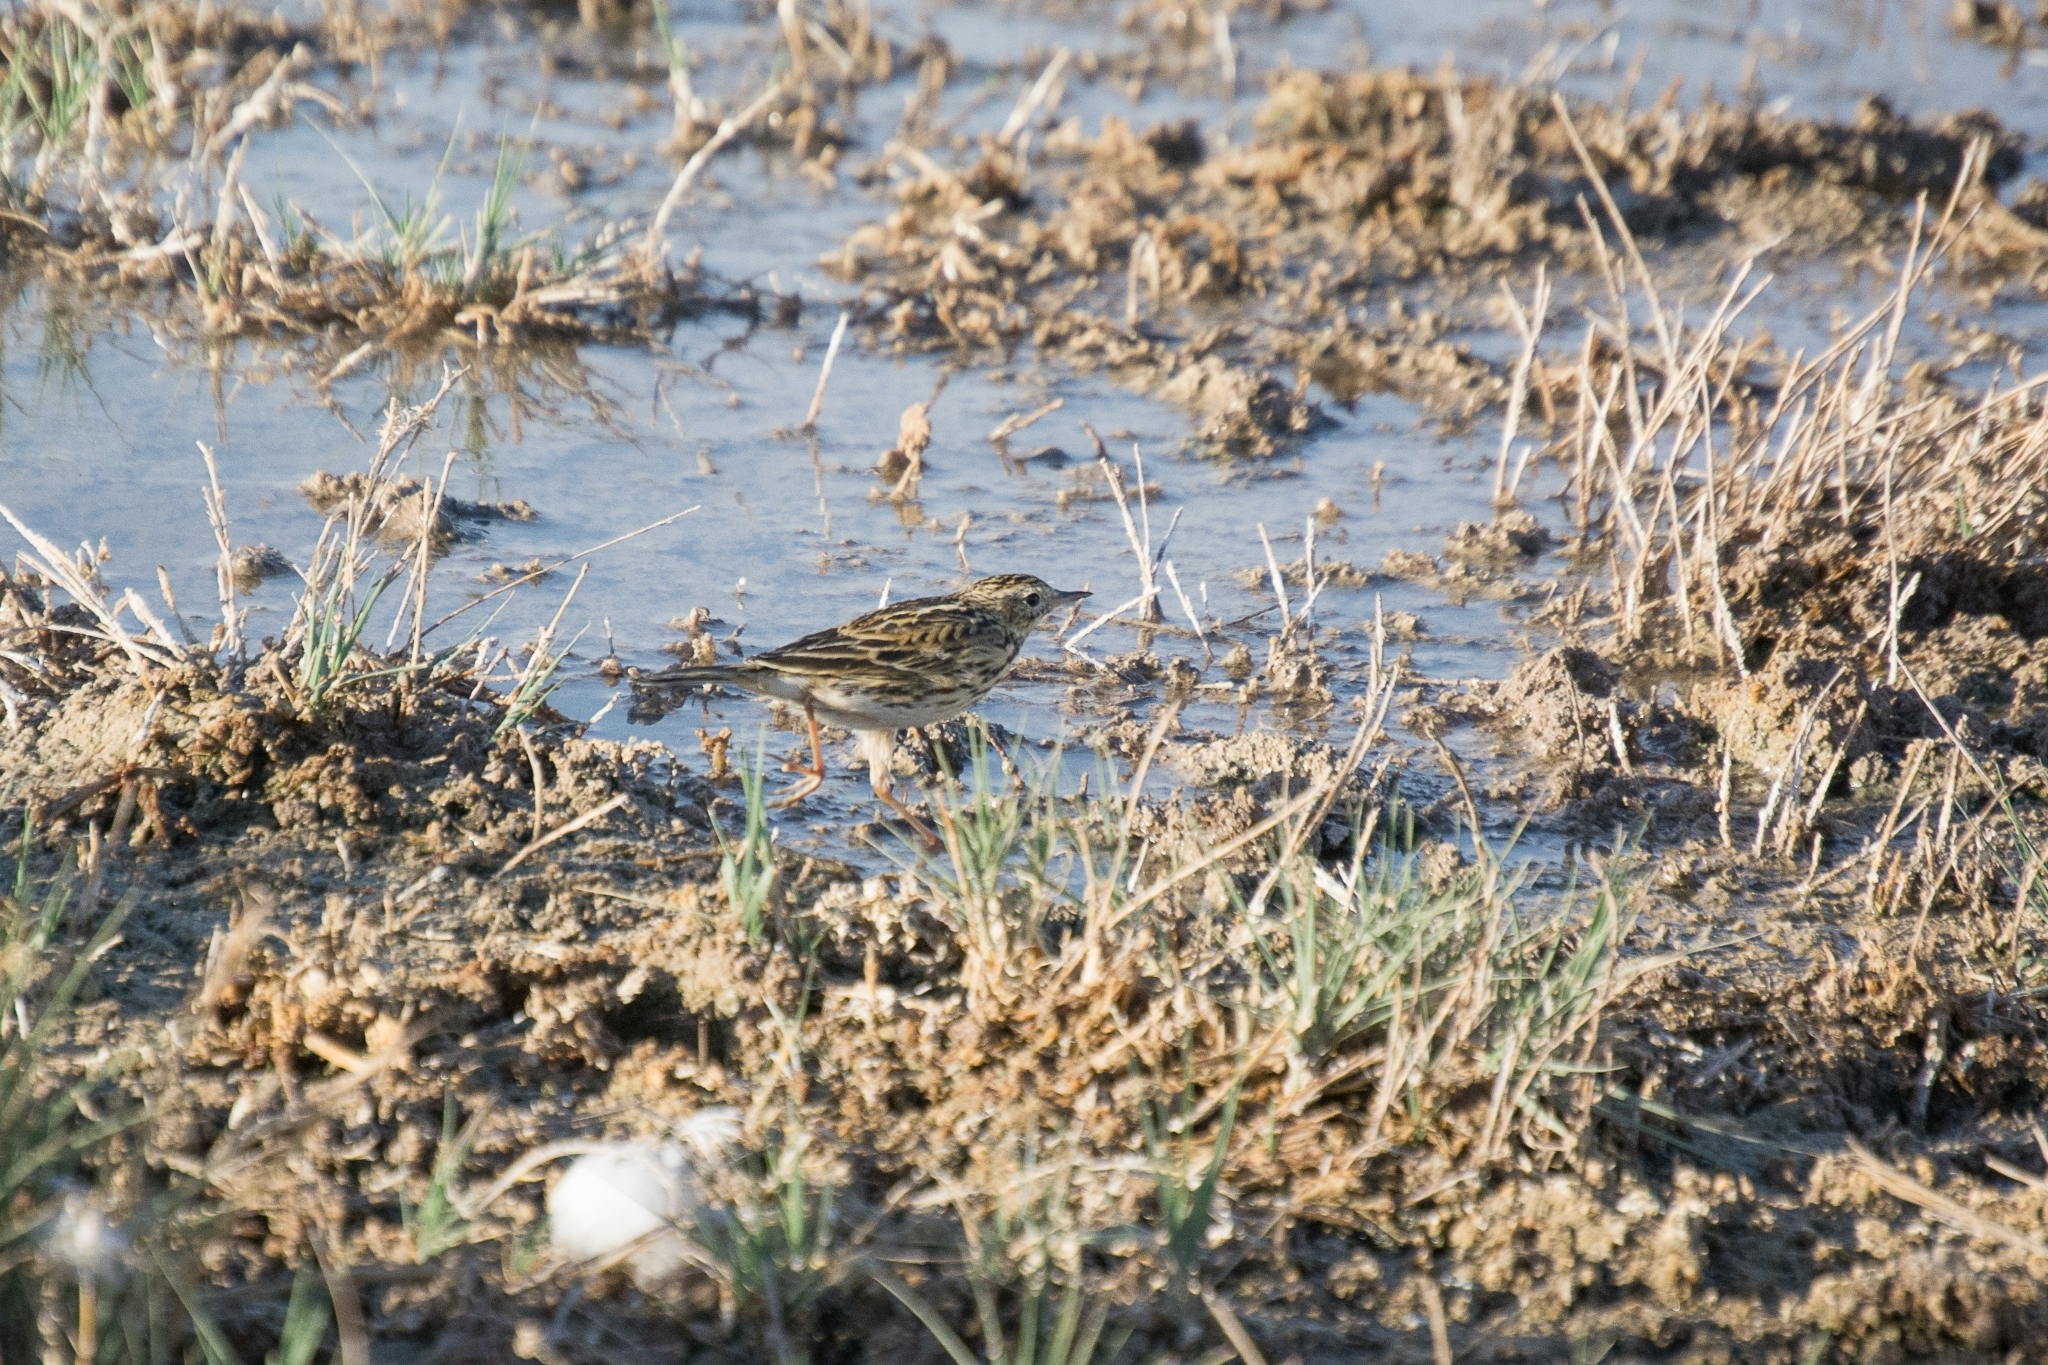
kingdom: Animalia
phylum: Chordata
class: Aves
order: Passeriformes
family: Motacillidae
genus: Anthus
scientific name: Anthus correndera
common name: Correndera pipit
